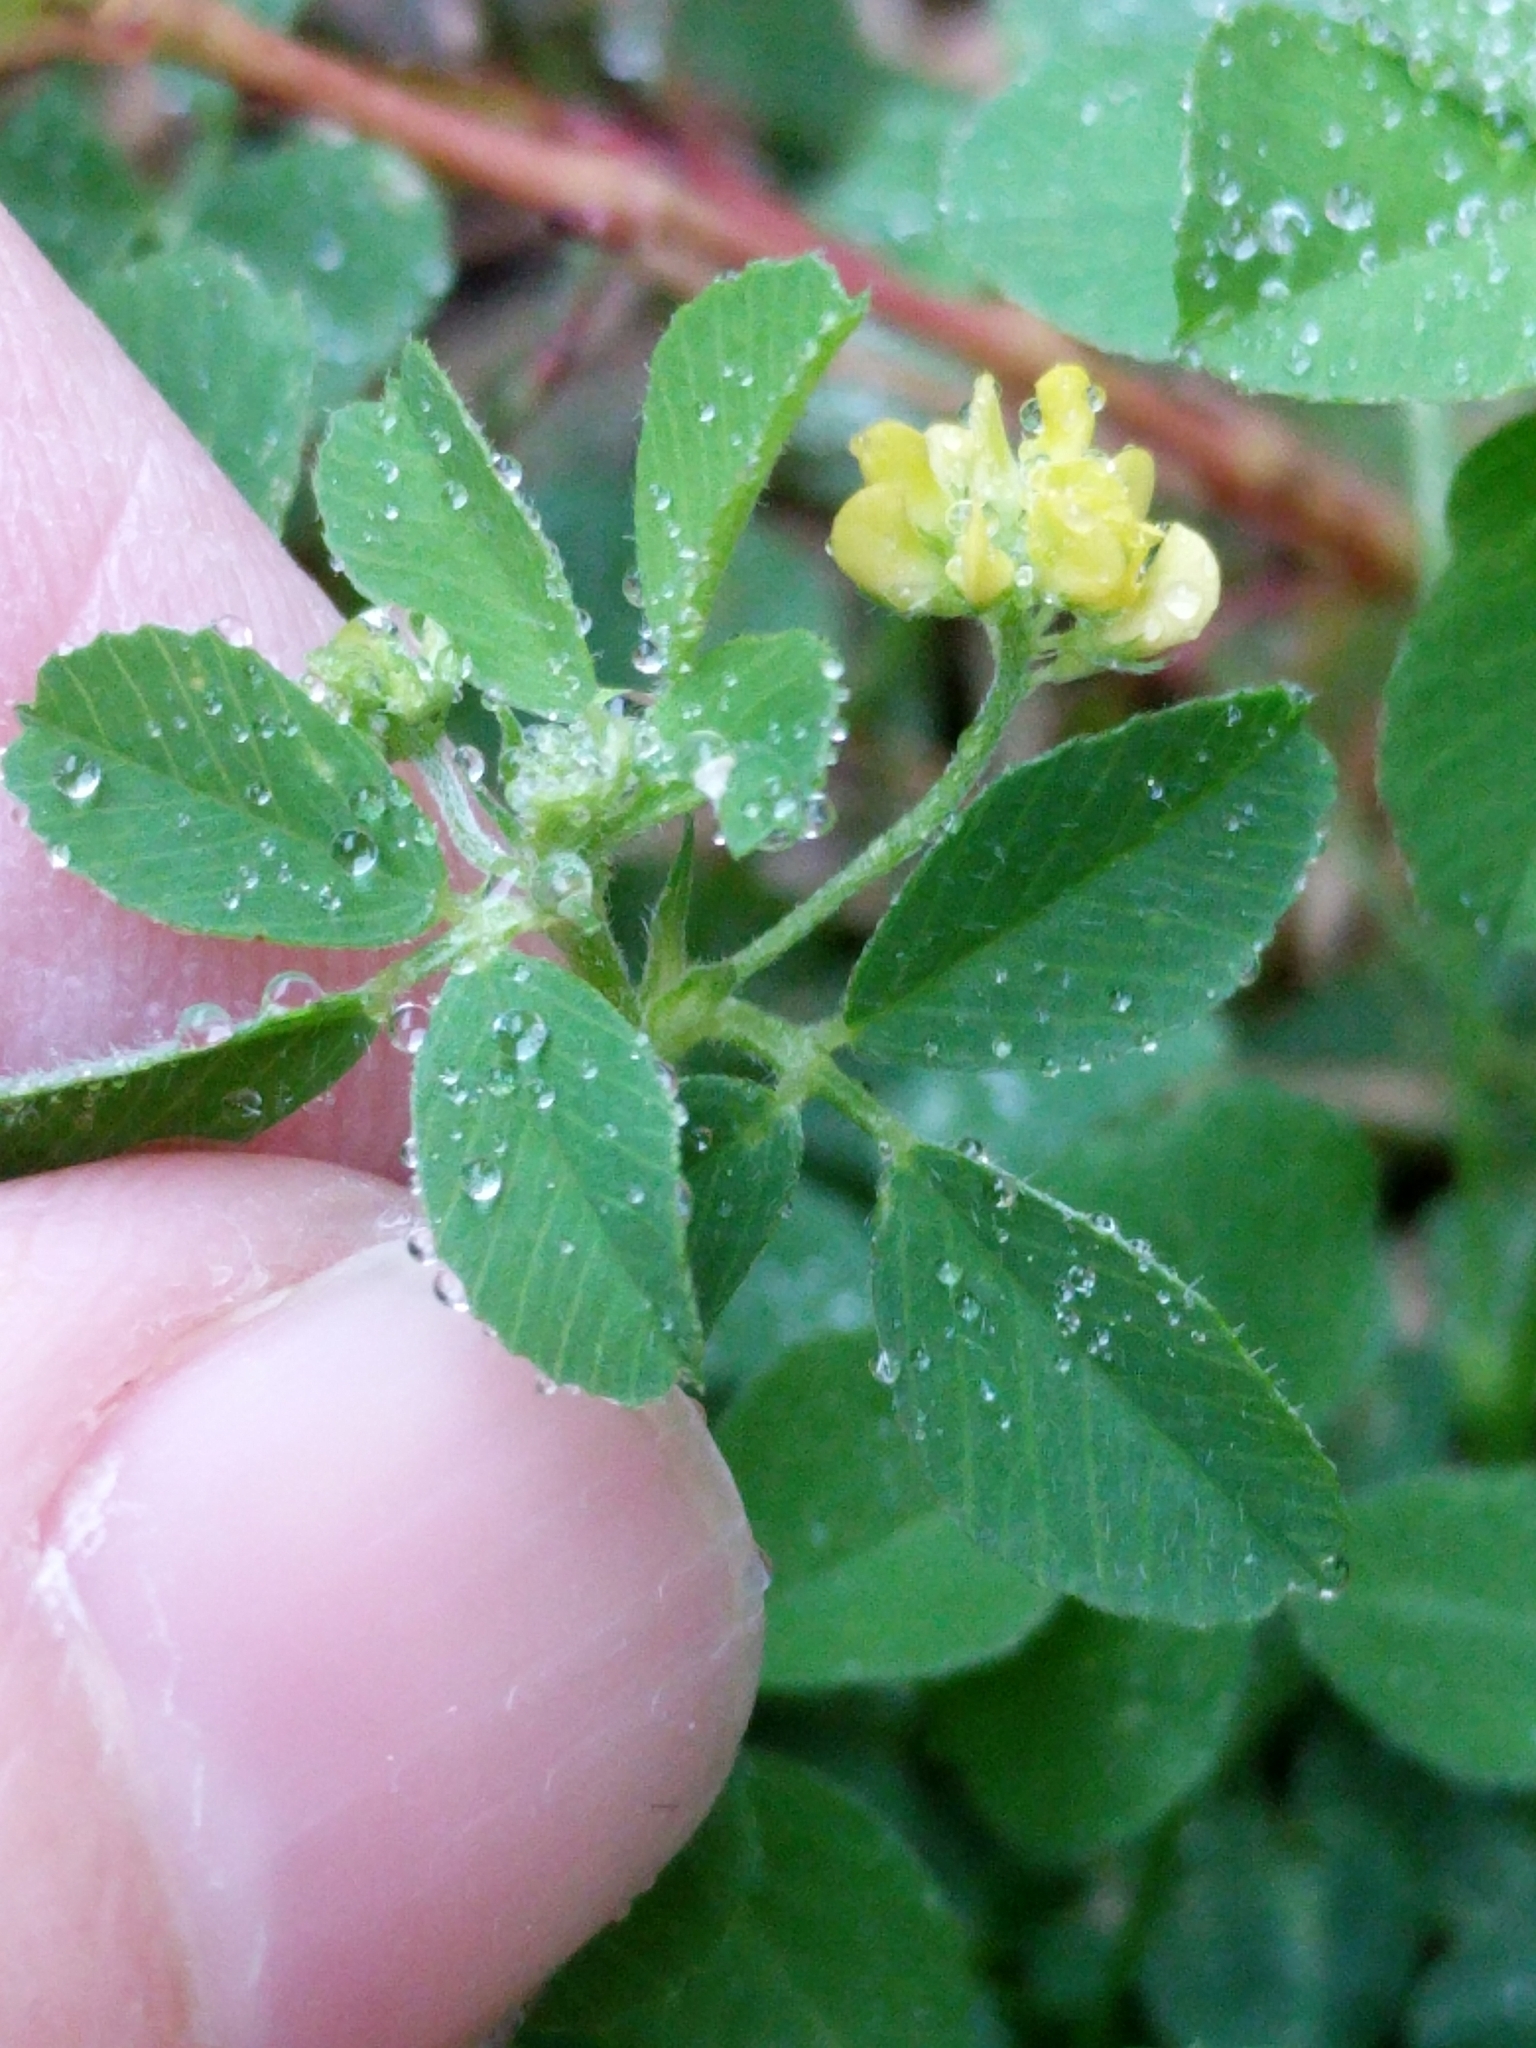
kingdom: Plantae
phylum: Tracheophyta
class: Magnoliopsida
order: Fabales
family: Fabaceae
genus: Medicago
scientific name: Medicago lupulina
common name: Black medick
